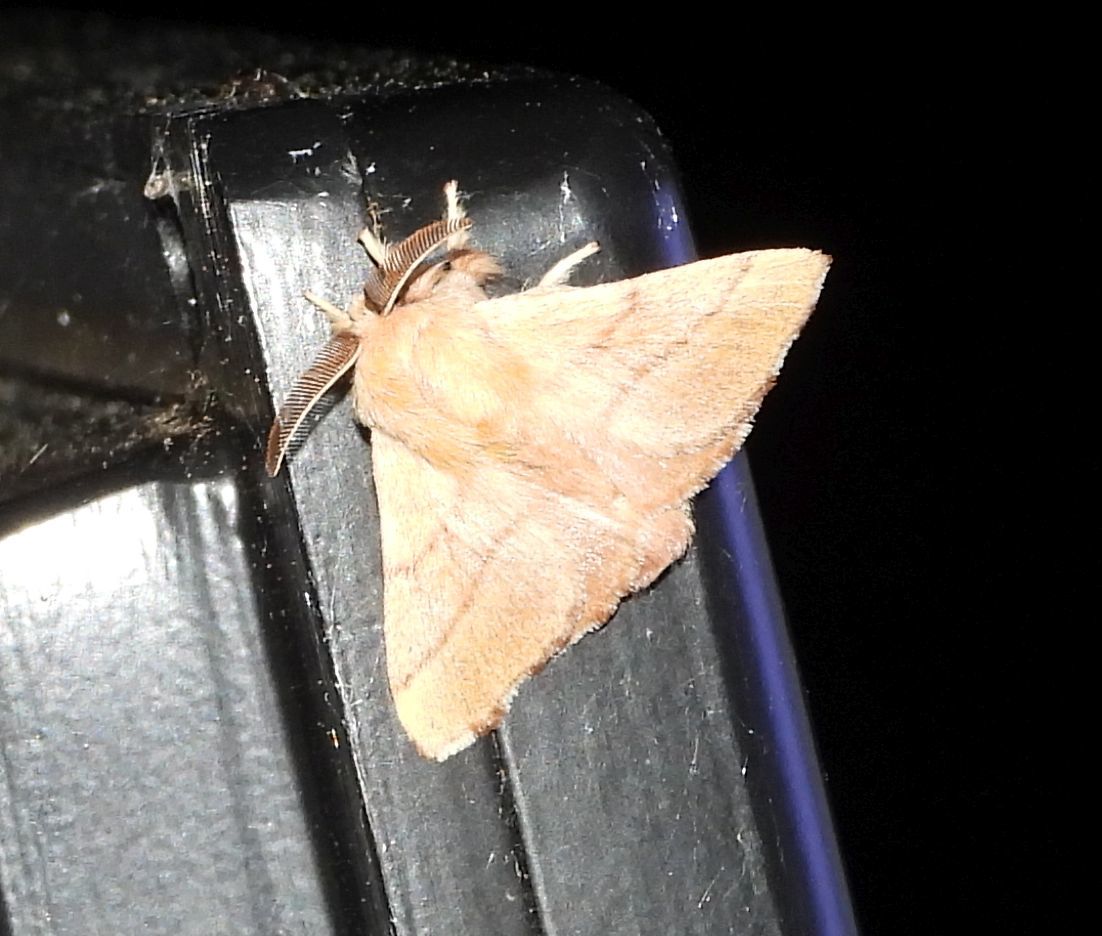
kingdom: Animalia
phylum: Arthropoda
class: Insecta
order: Lepidoptera
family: Lasiocampidae
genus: Malacosoma
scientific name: Malacosoma disstria
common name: Forest tent caterpillar
